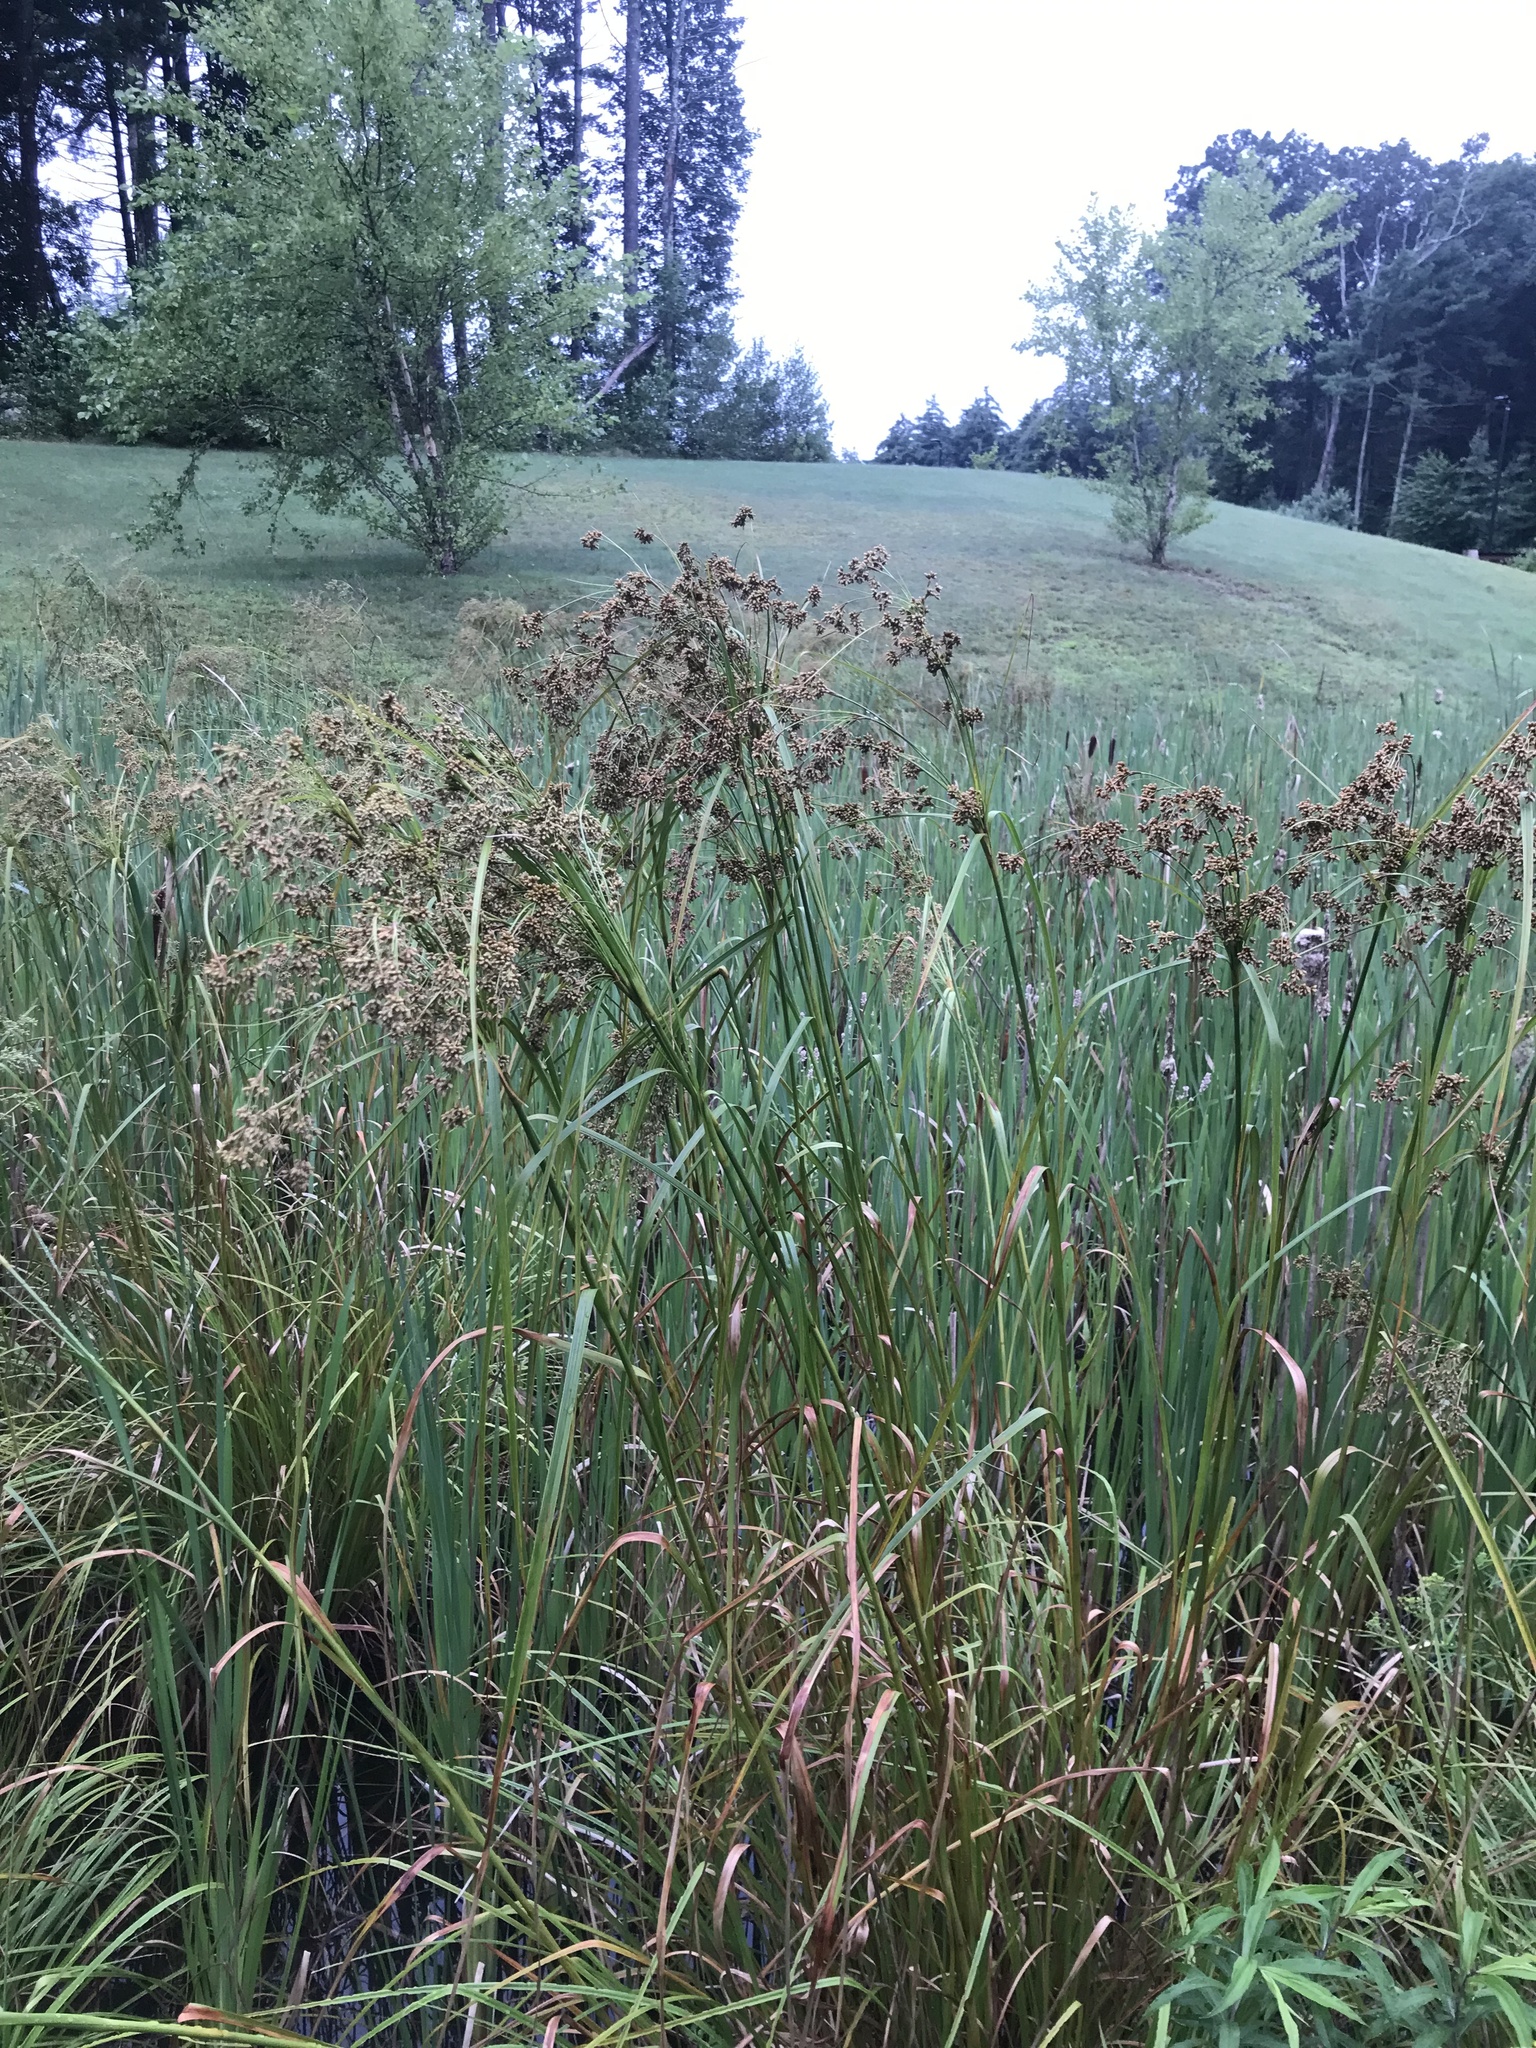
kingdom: Plantae
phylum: Tracheophyta
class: Liliopsida
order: Poales
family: Cyperaceae
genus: Scirpus
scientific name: Scirpus cyperinus
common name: Black-sheathed bulrush
